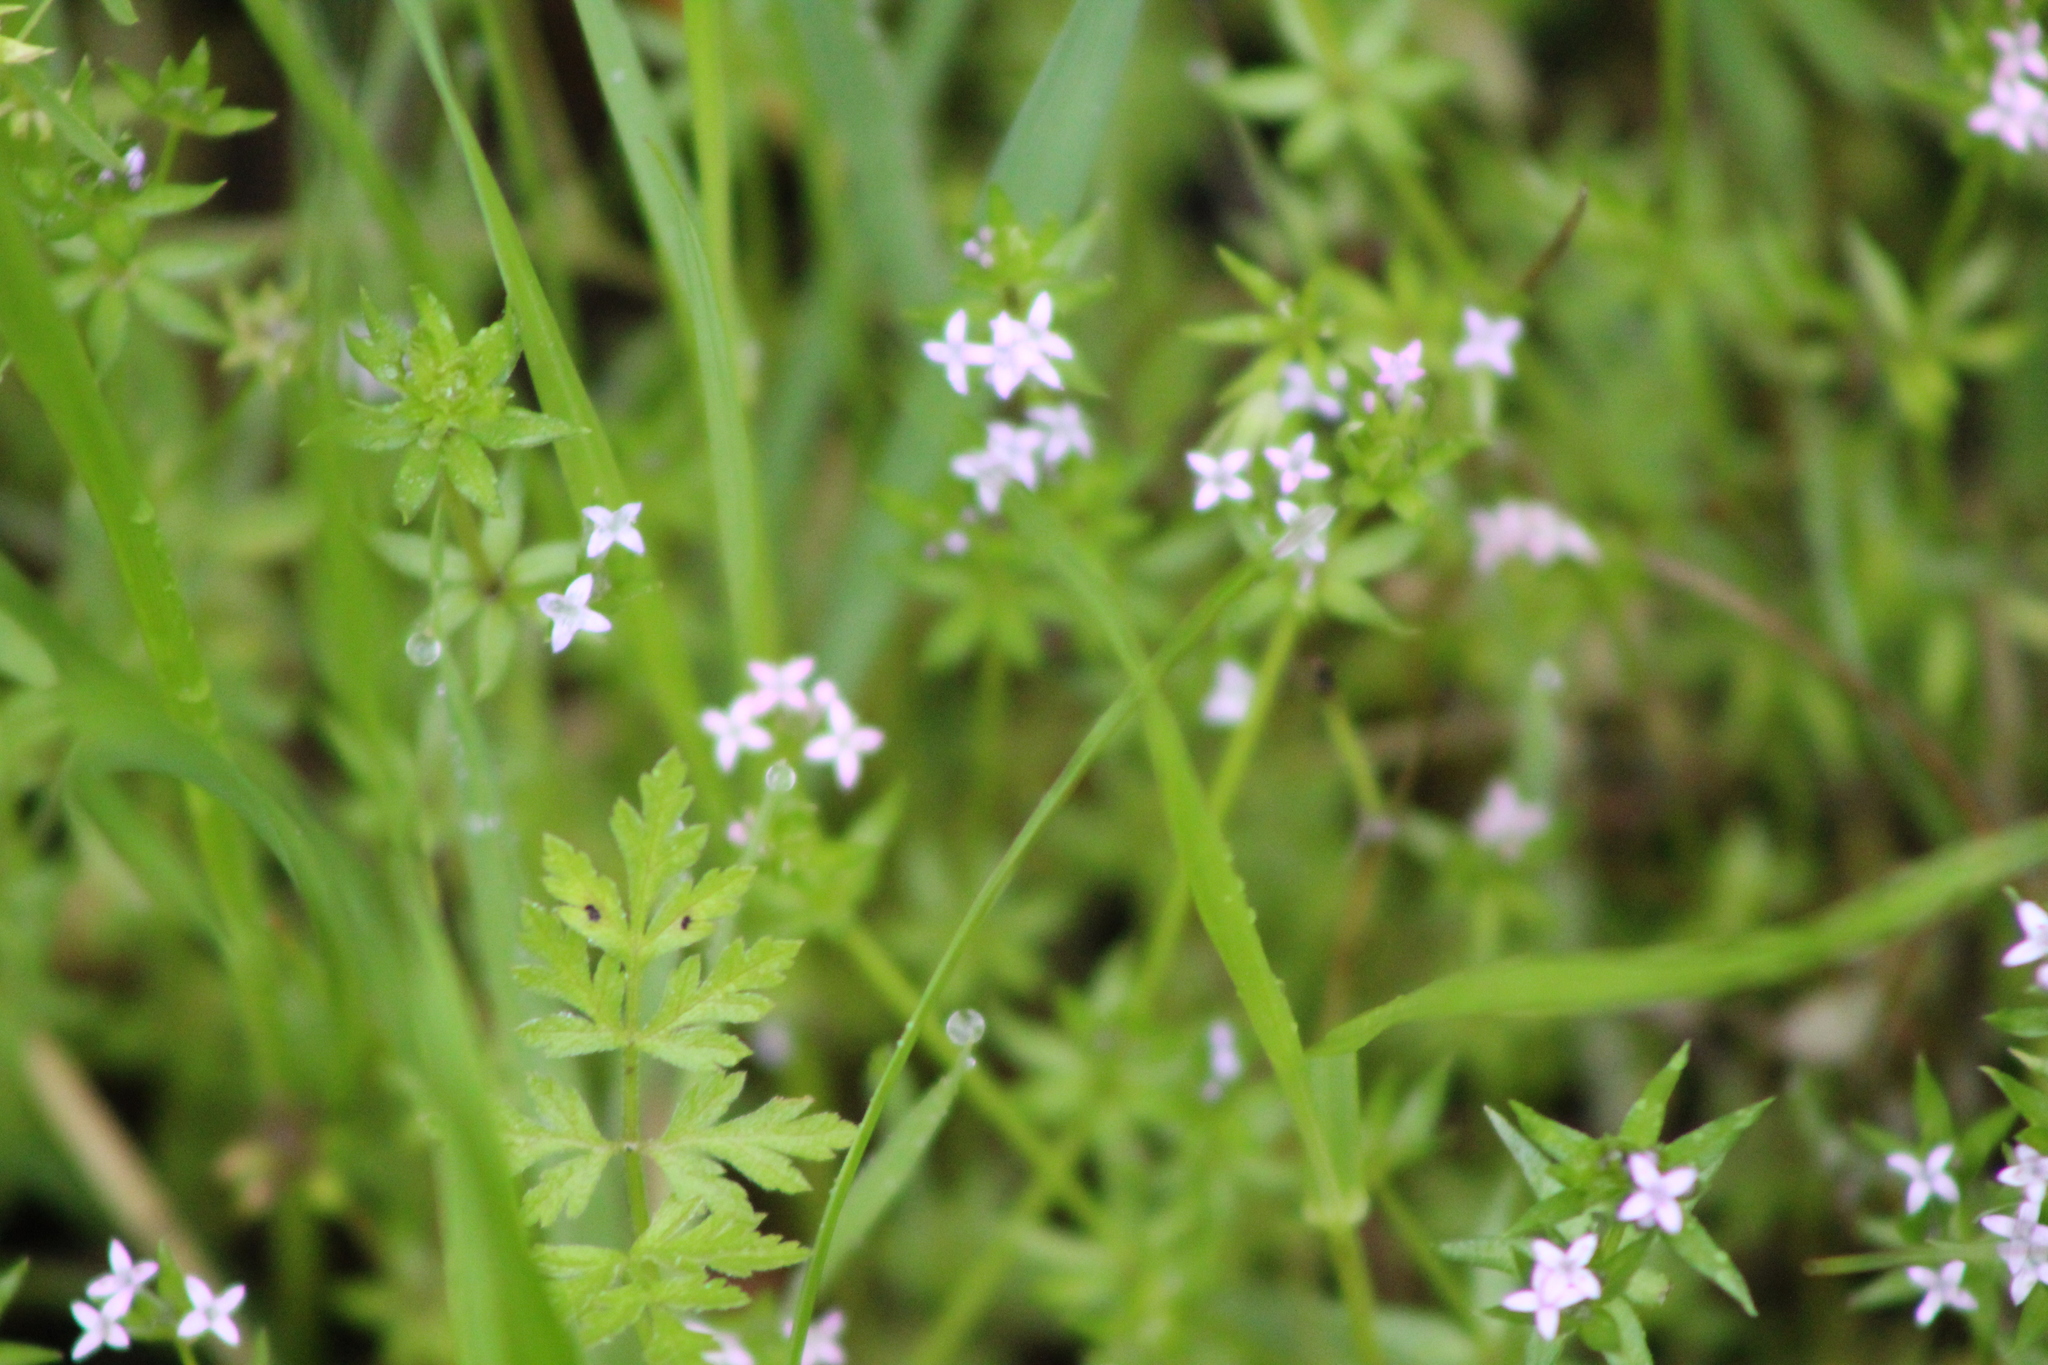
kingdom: Plantae
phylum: Tracheophyta
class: Magnoliopsida
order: Gentianales
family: Rubiaceae
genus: Sherardia
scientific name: Sherardia arvensis
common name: Field madder
